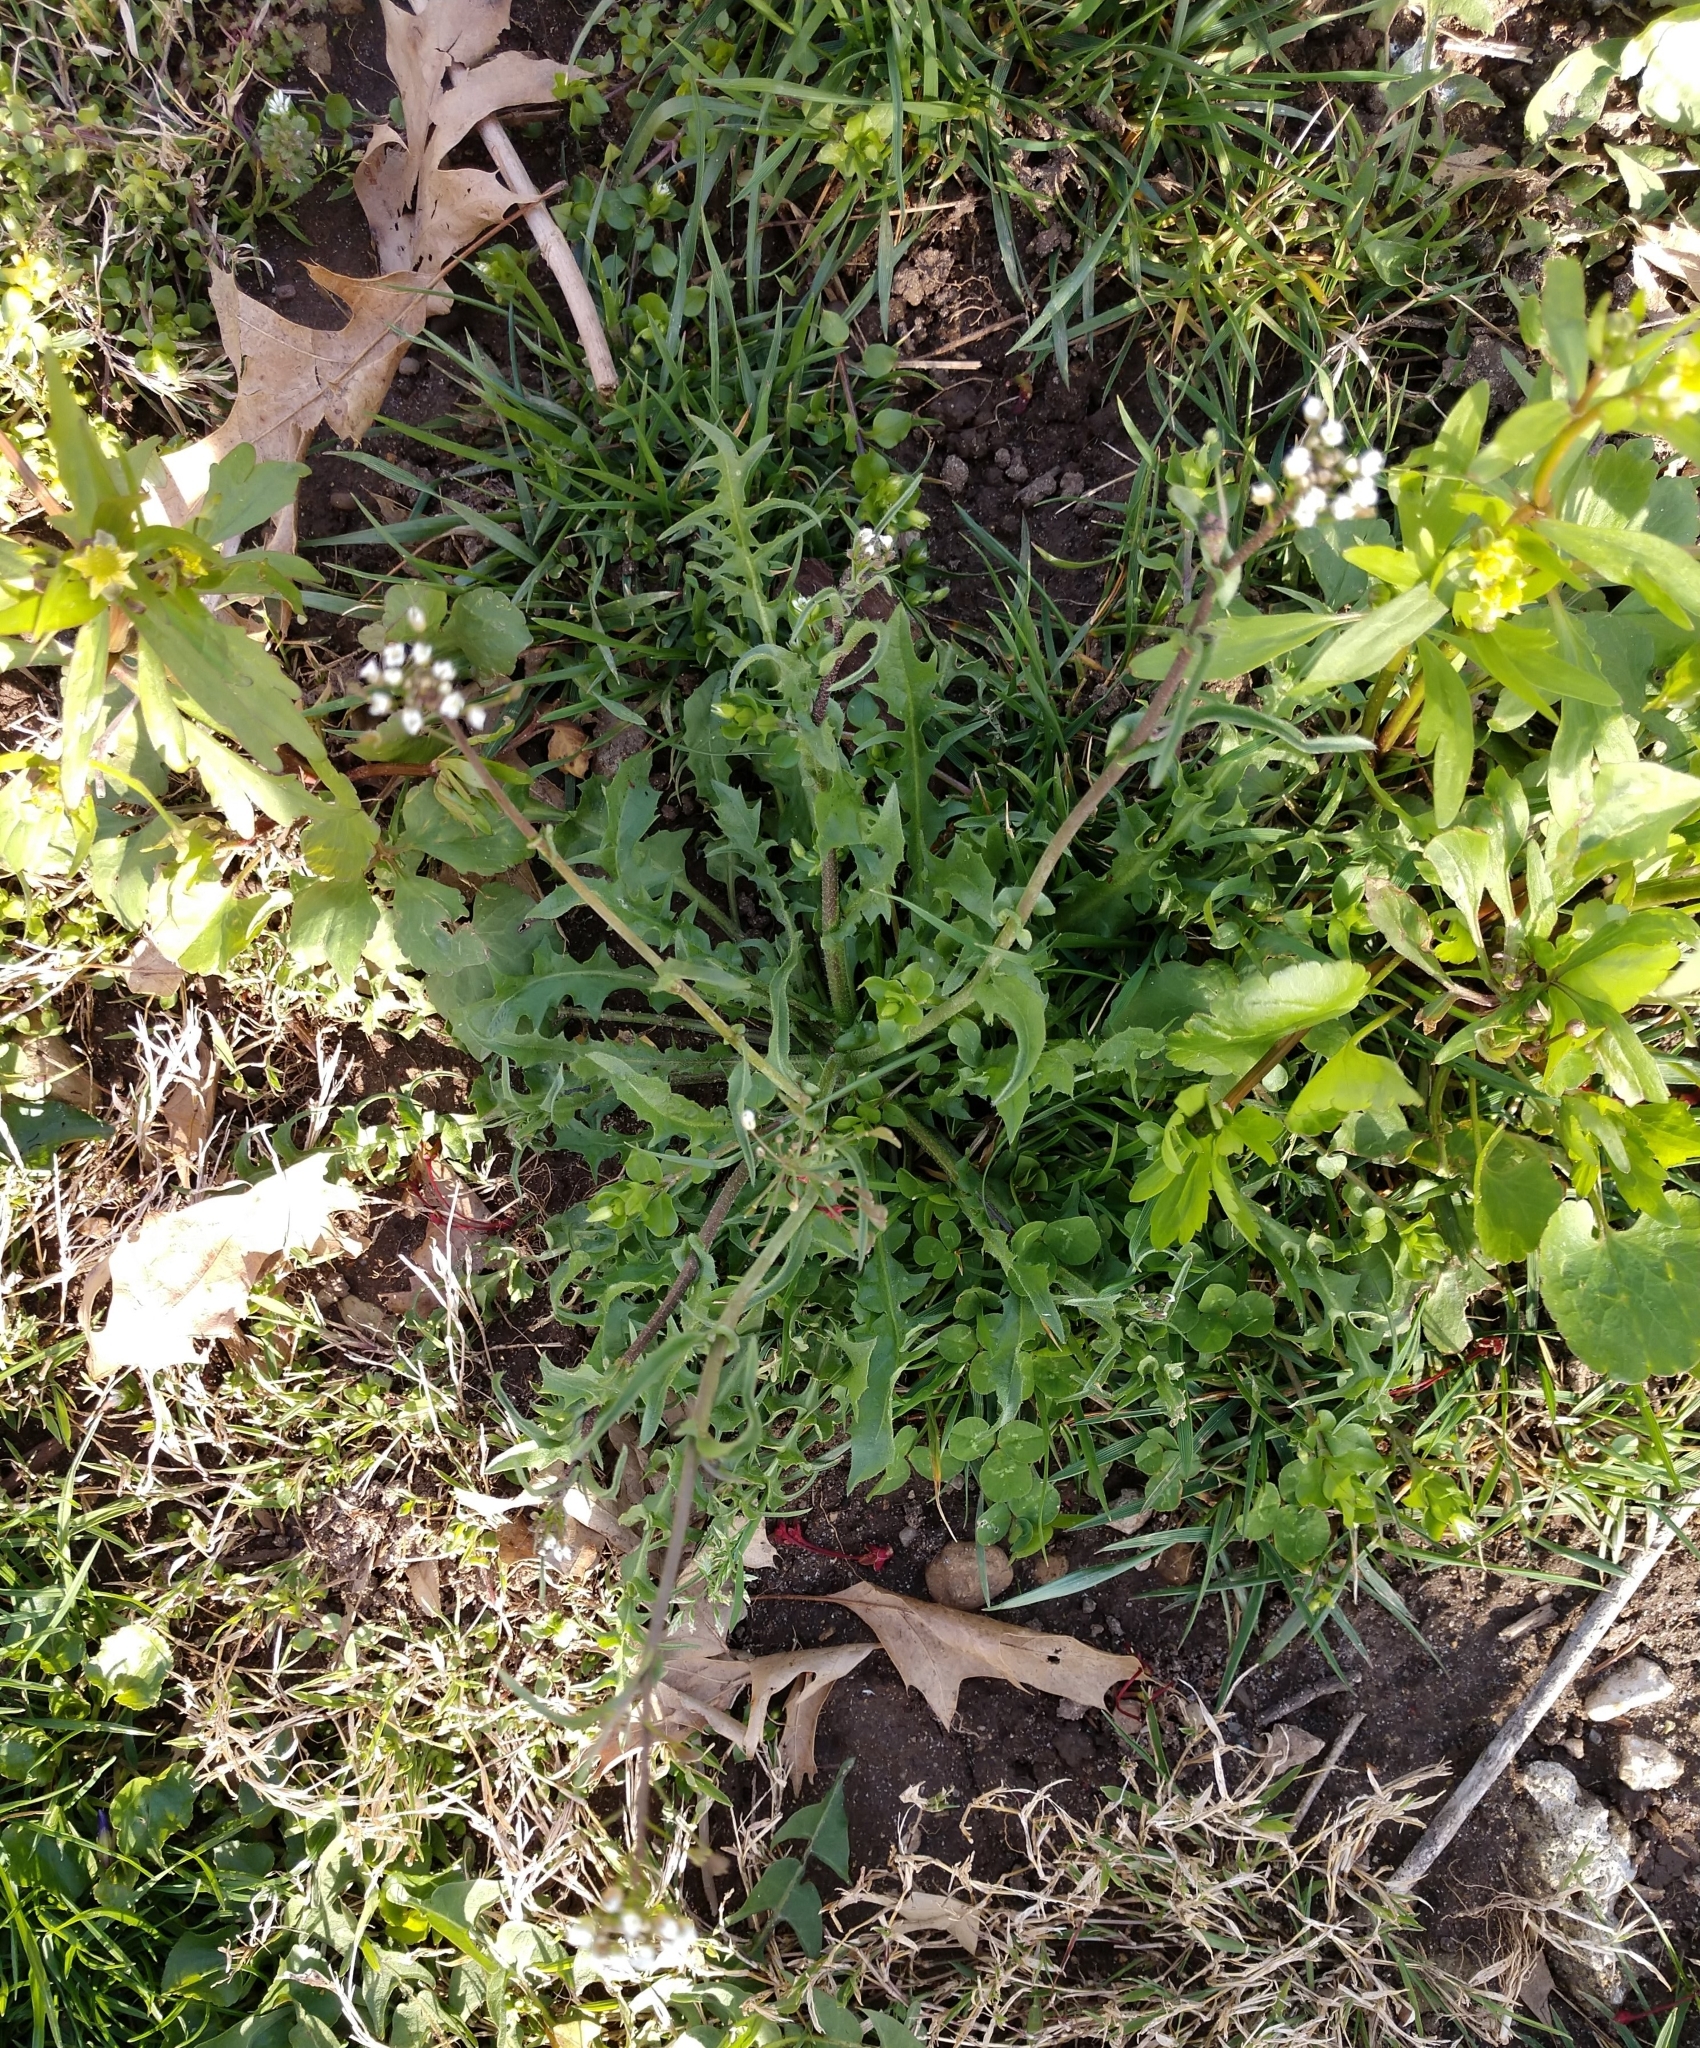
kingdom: Plantae
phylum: Tracheophyta
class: Magnoliopsida
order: Brassicales
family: Brassicaceae
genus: Capsella
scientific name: Capsella bursa-pastoris
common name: Shepherd's purse
